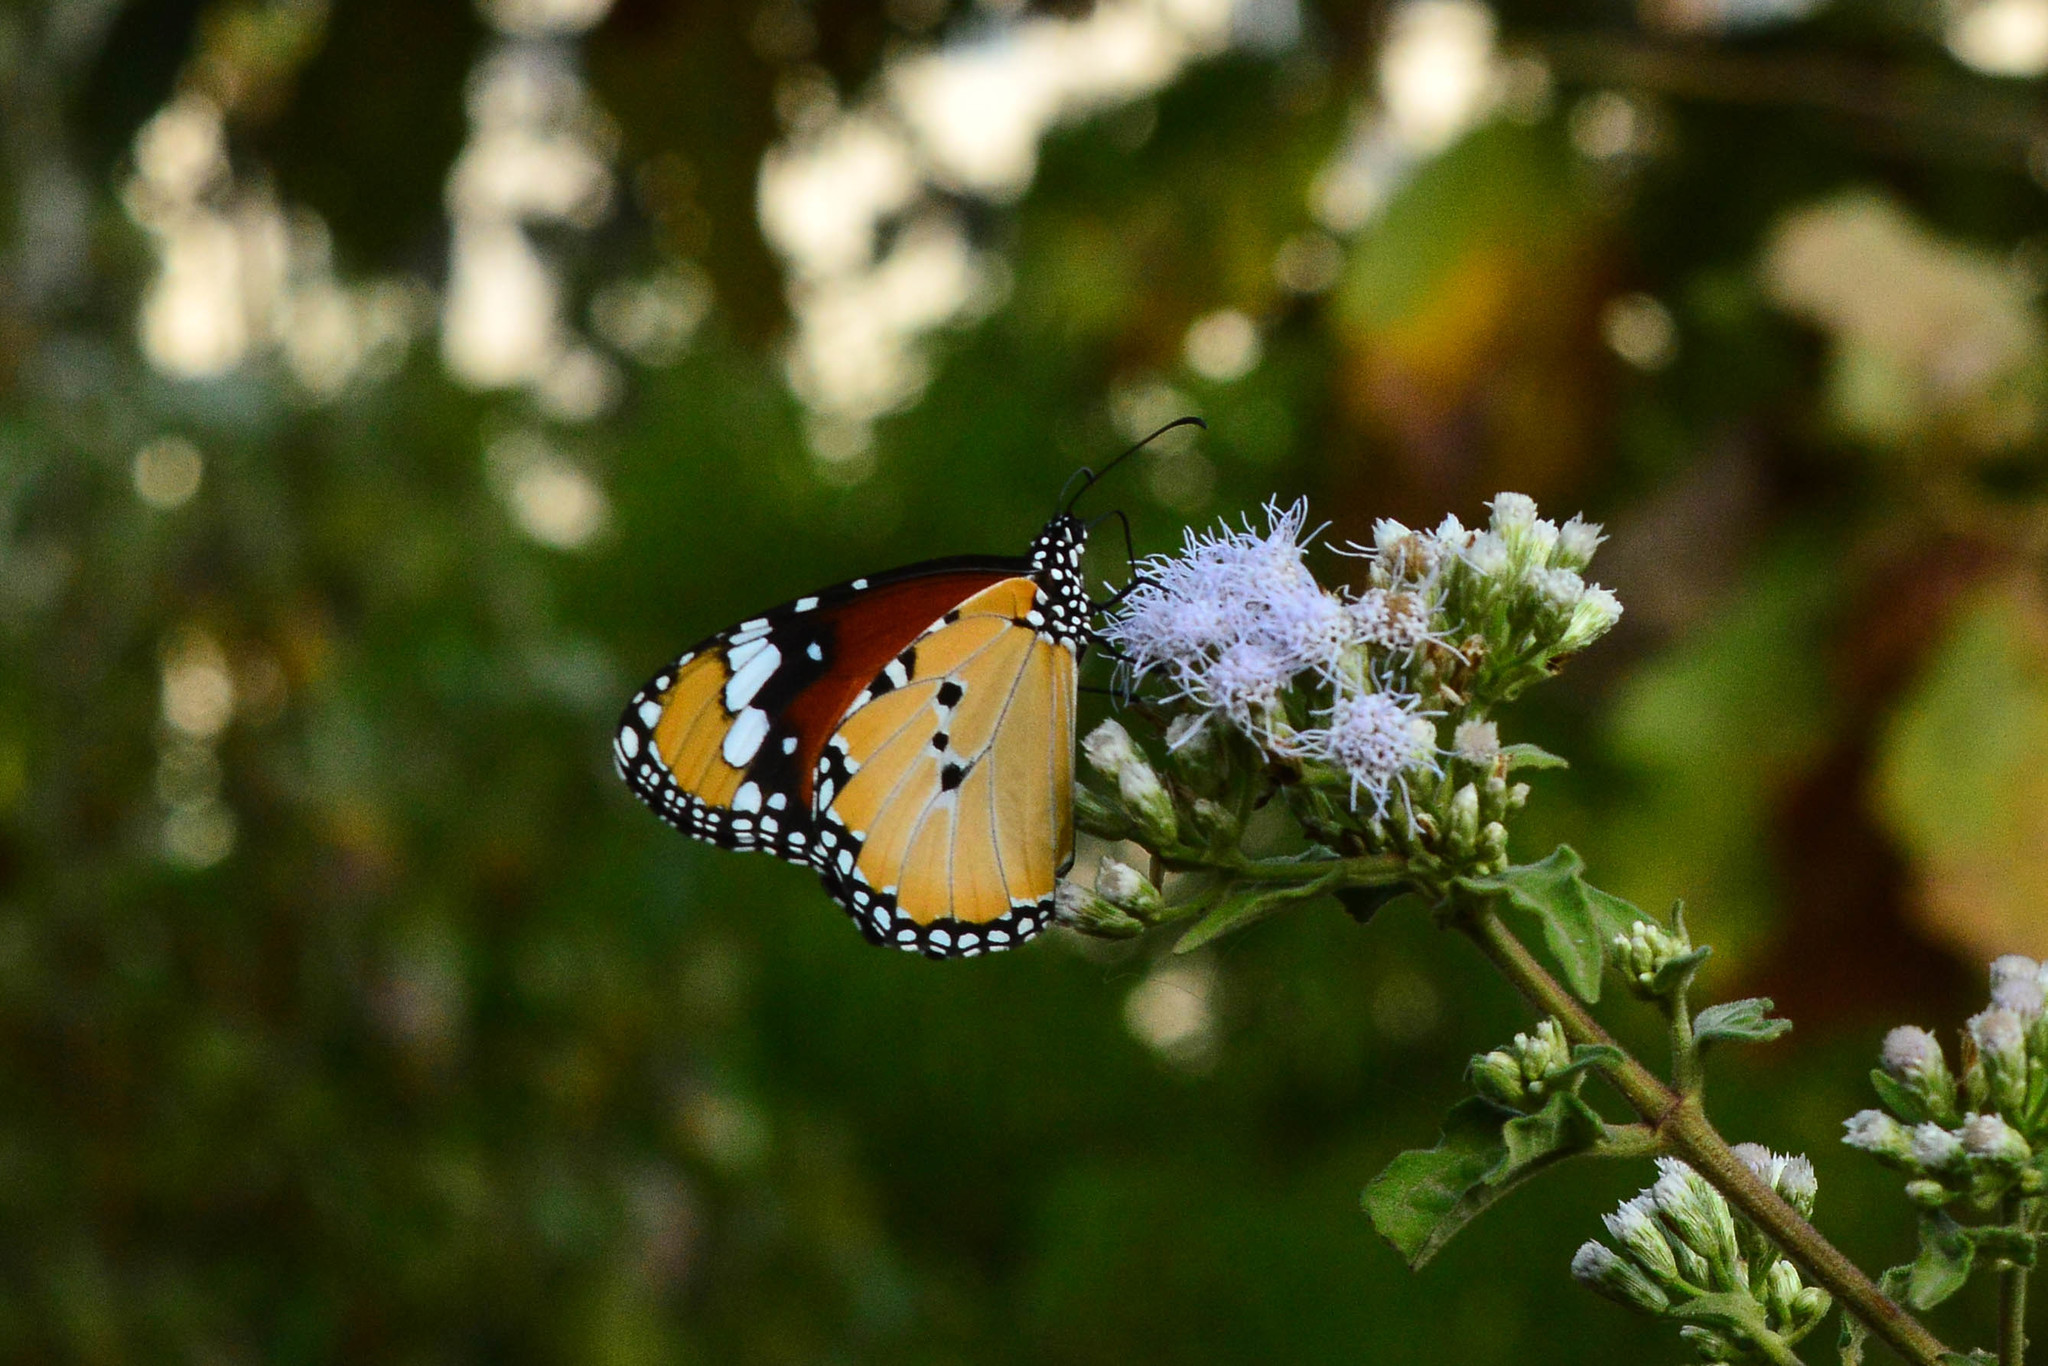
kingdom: Animalia
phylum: Arthropoda
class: Insecta
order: Lepidoptera
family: Nymphalidae
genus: Danaus
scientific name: Danaus chrysippus
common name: Plain tiger
